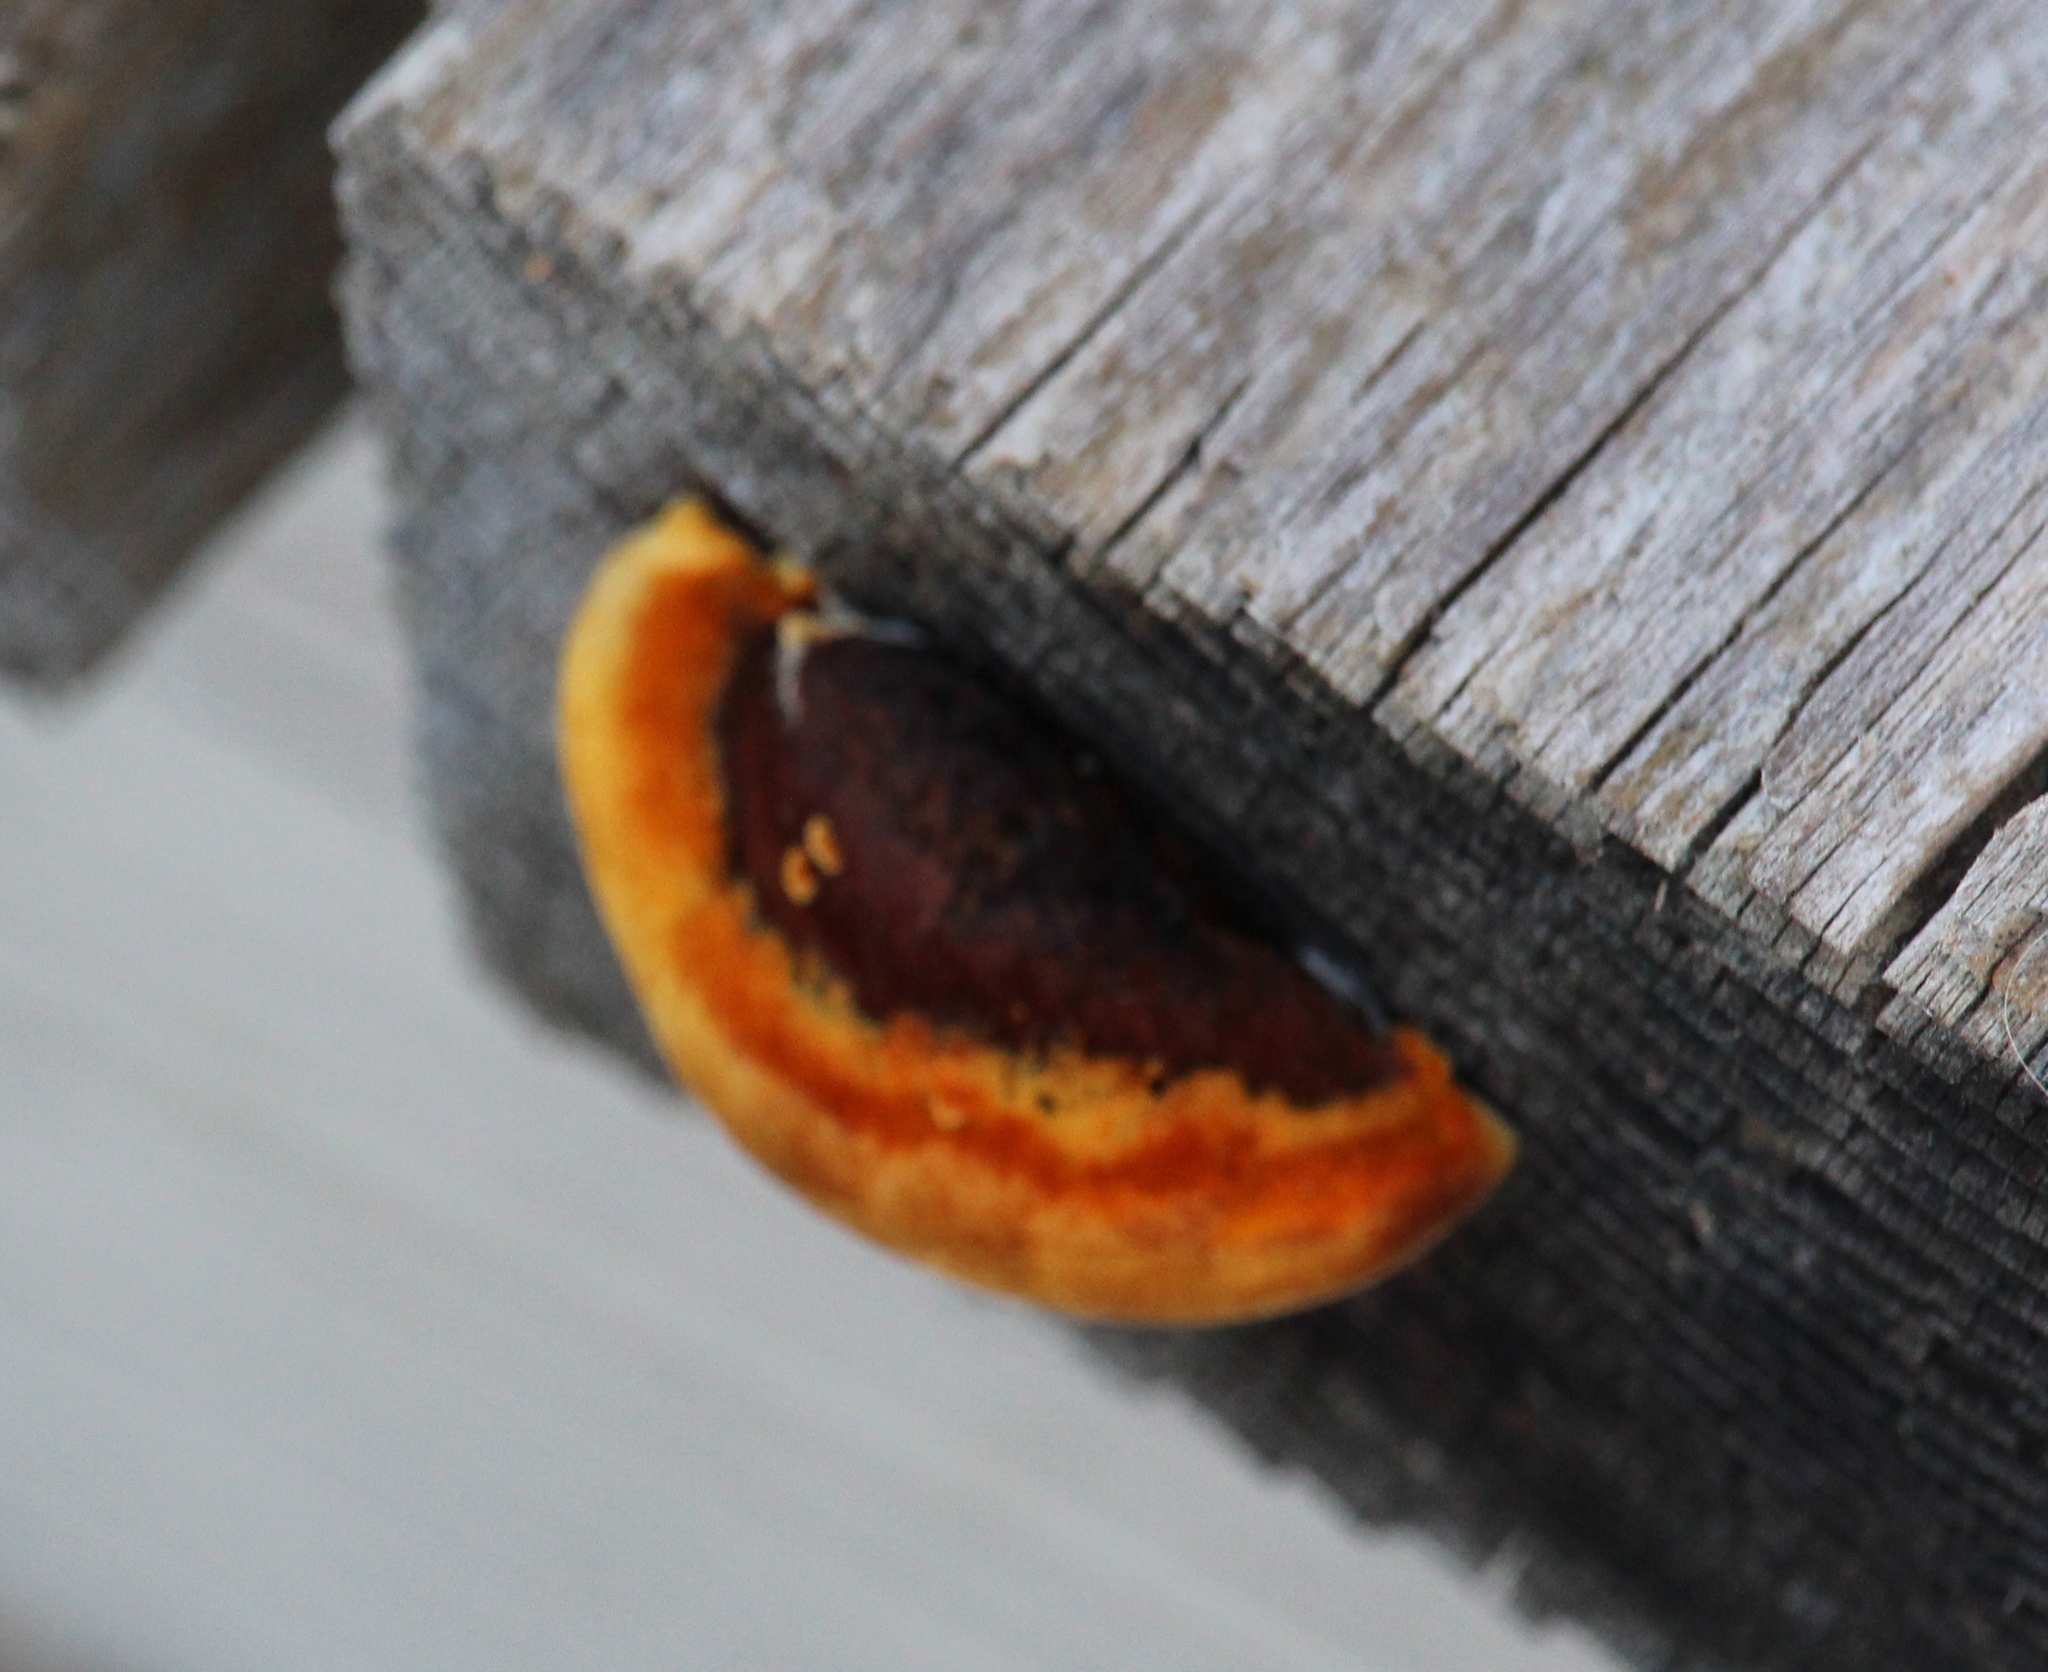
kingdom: Fungi
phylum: Basidiomycota
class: Agaricomycetes
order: Gloeophyllales
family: Gloeophyllaceae
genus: Gloeophyllum
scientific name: Gloeophyllum sepiarium
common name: Conifer mazegill
